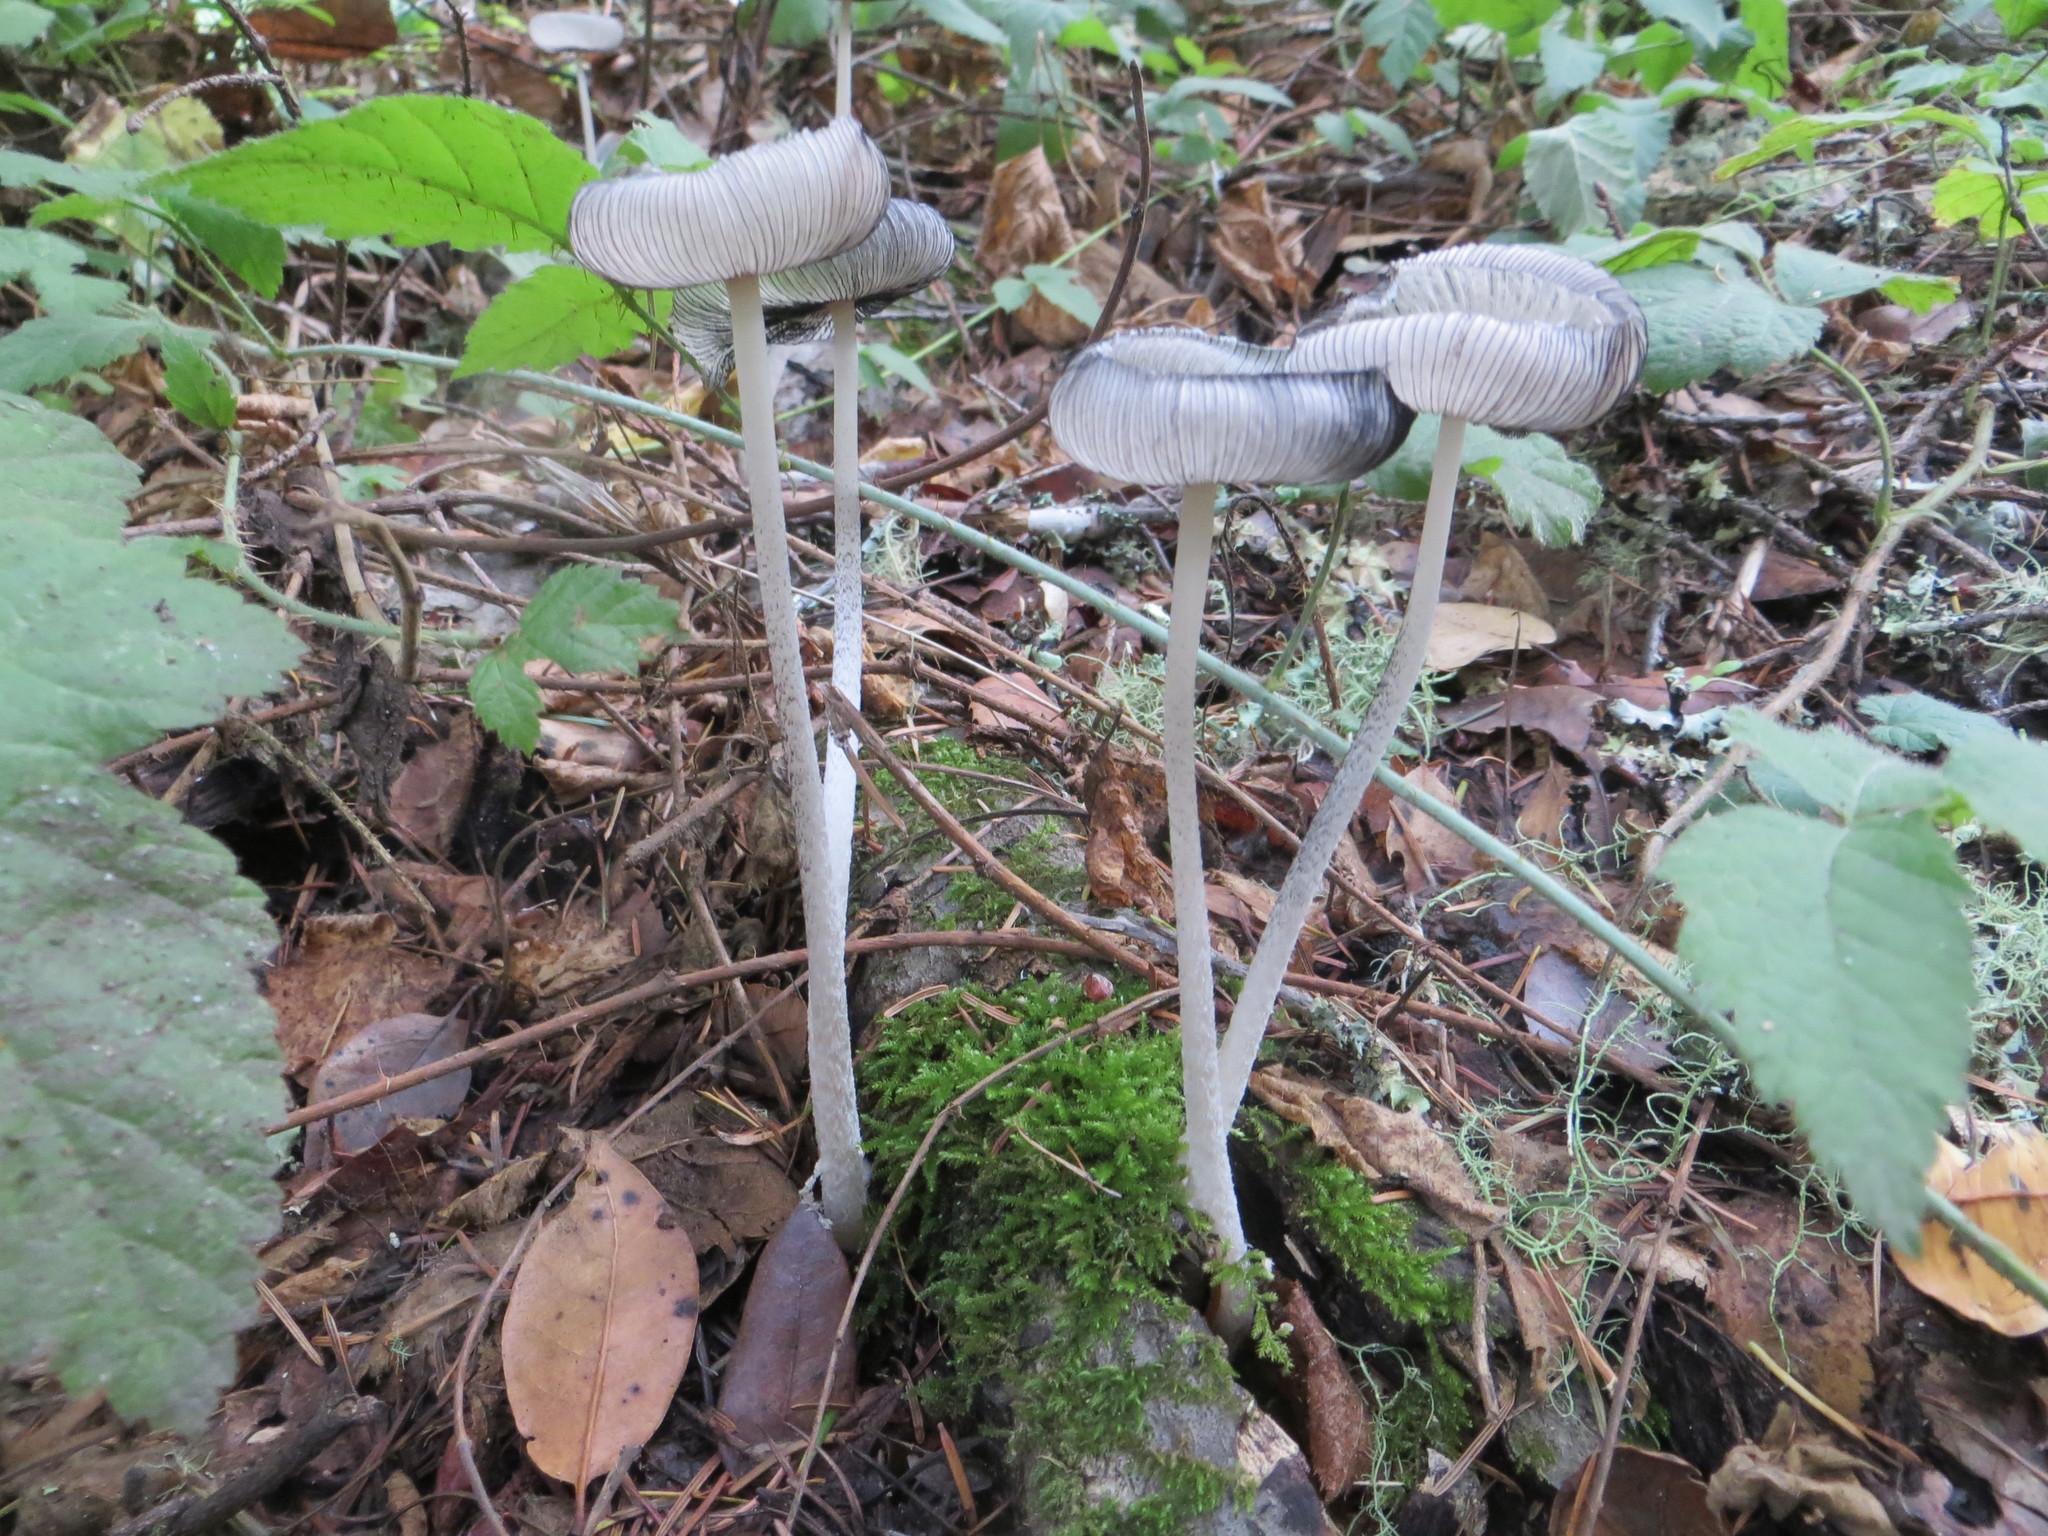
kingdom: Fungi
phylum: Basidiomycota
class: Agaricomycetes
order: Agaricales
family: Psathyrellaceae
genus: Coprinopsis
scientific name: Coprinopsis lagopus
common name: Hare'sfoot inkcap
